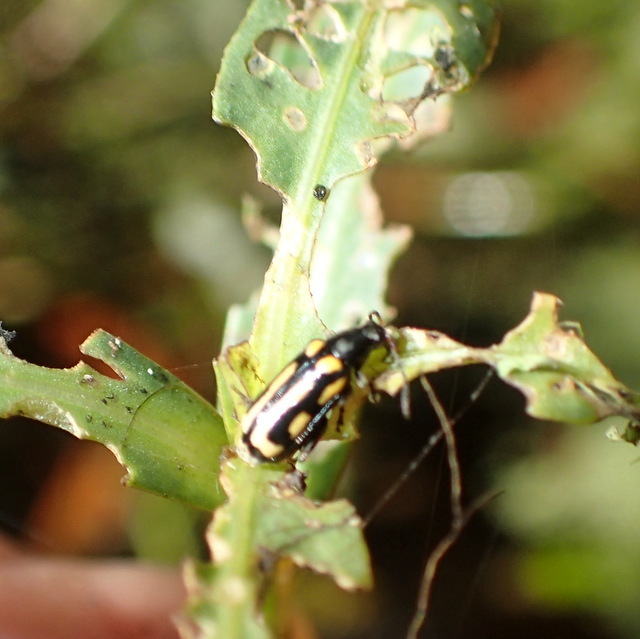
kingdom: Animalia
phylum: Arthropoda
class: Insecta
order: Coleoptera
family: Chrysomelidae
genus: Agasicles
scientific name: Agasicles hygrophila
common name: Alligatorweed flea beetle
